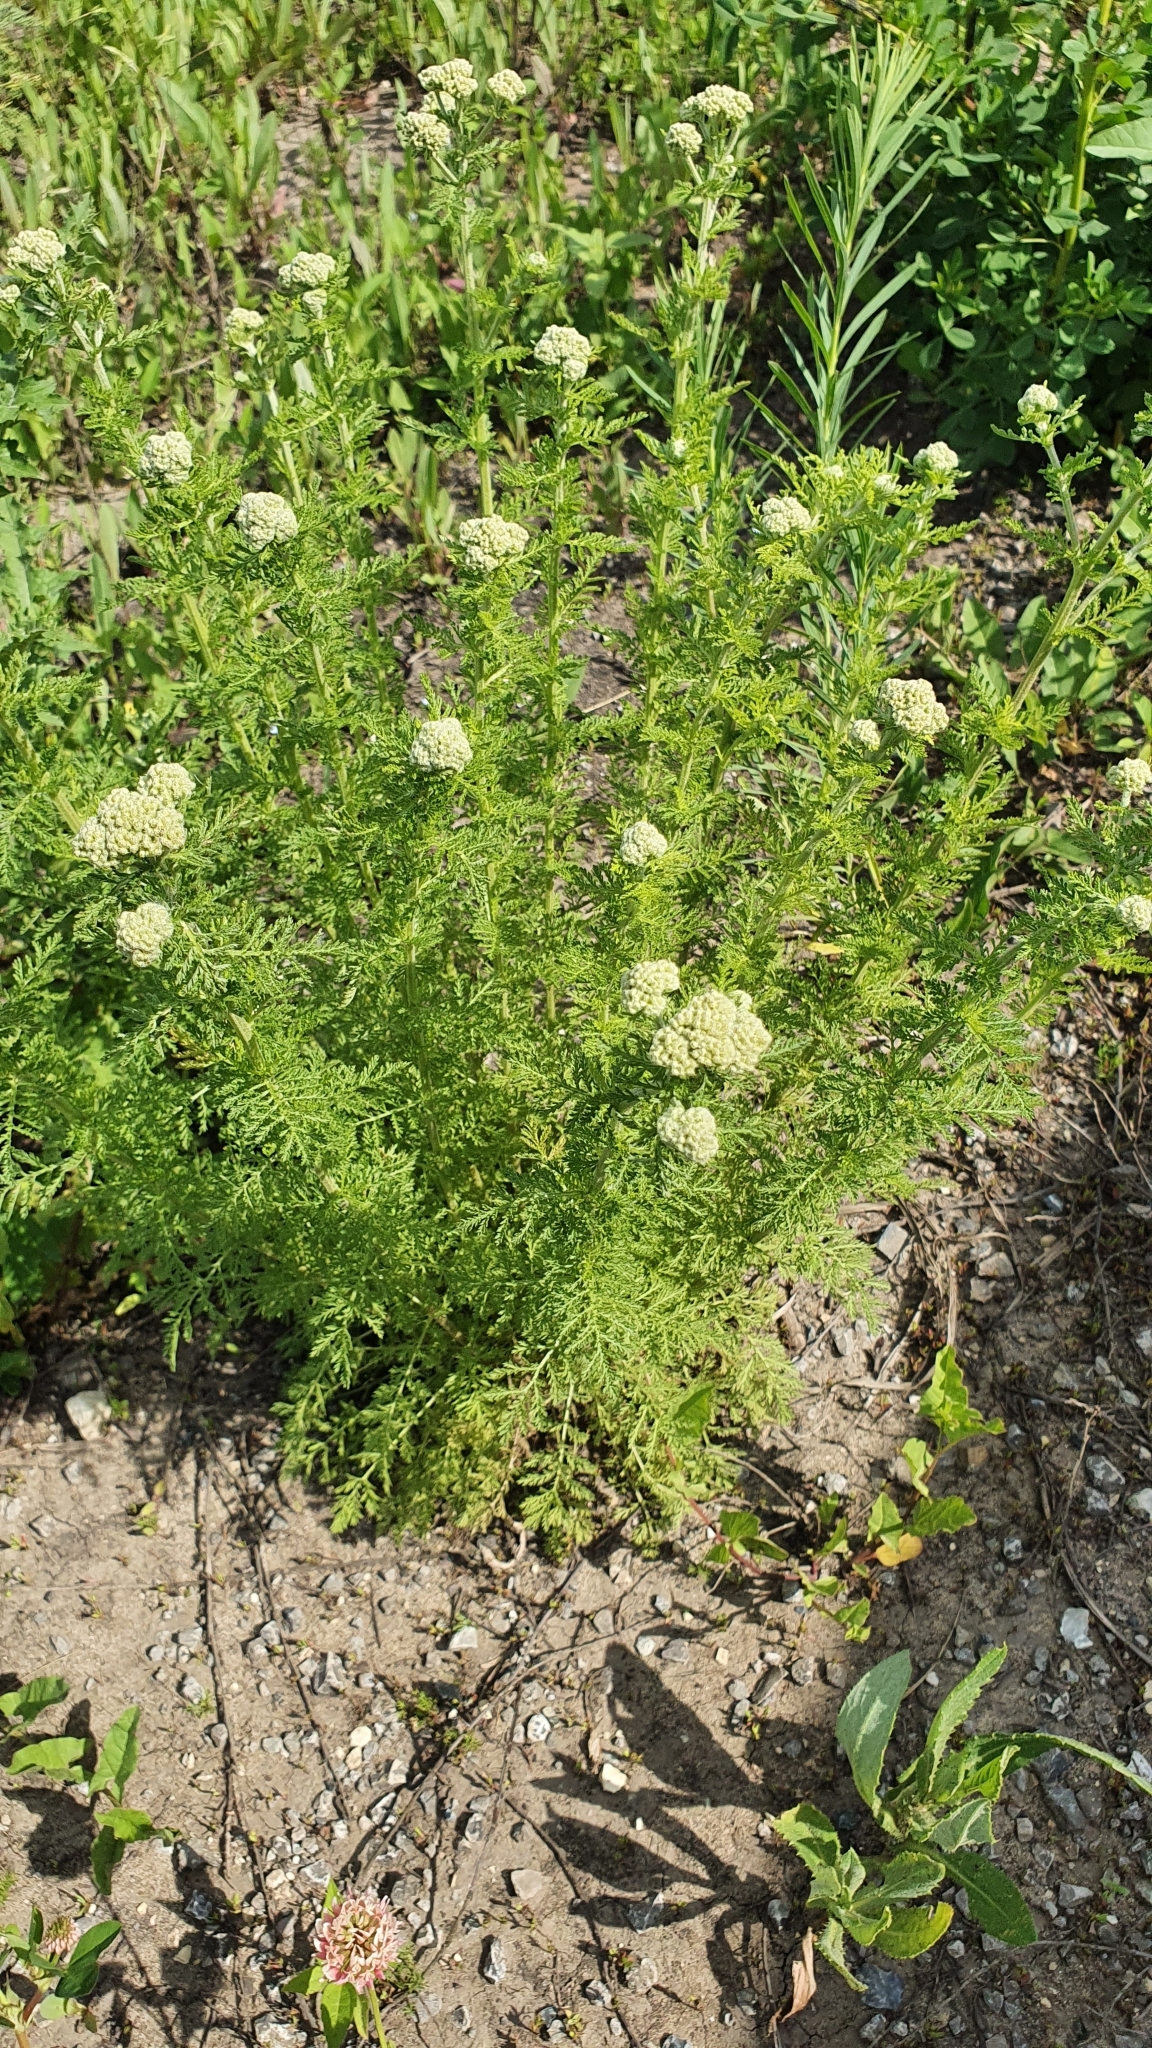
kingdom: Plantae
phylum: Tracheophyta
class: Magnoliopsida
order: Asterales
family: Asteraceae
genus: Achillea
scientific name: Achillea nobilis
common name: Noble yarrow
